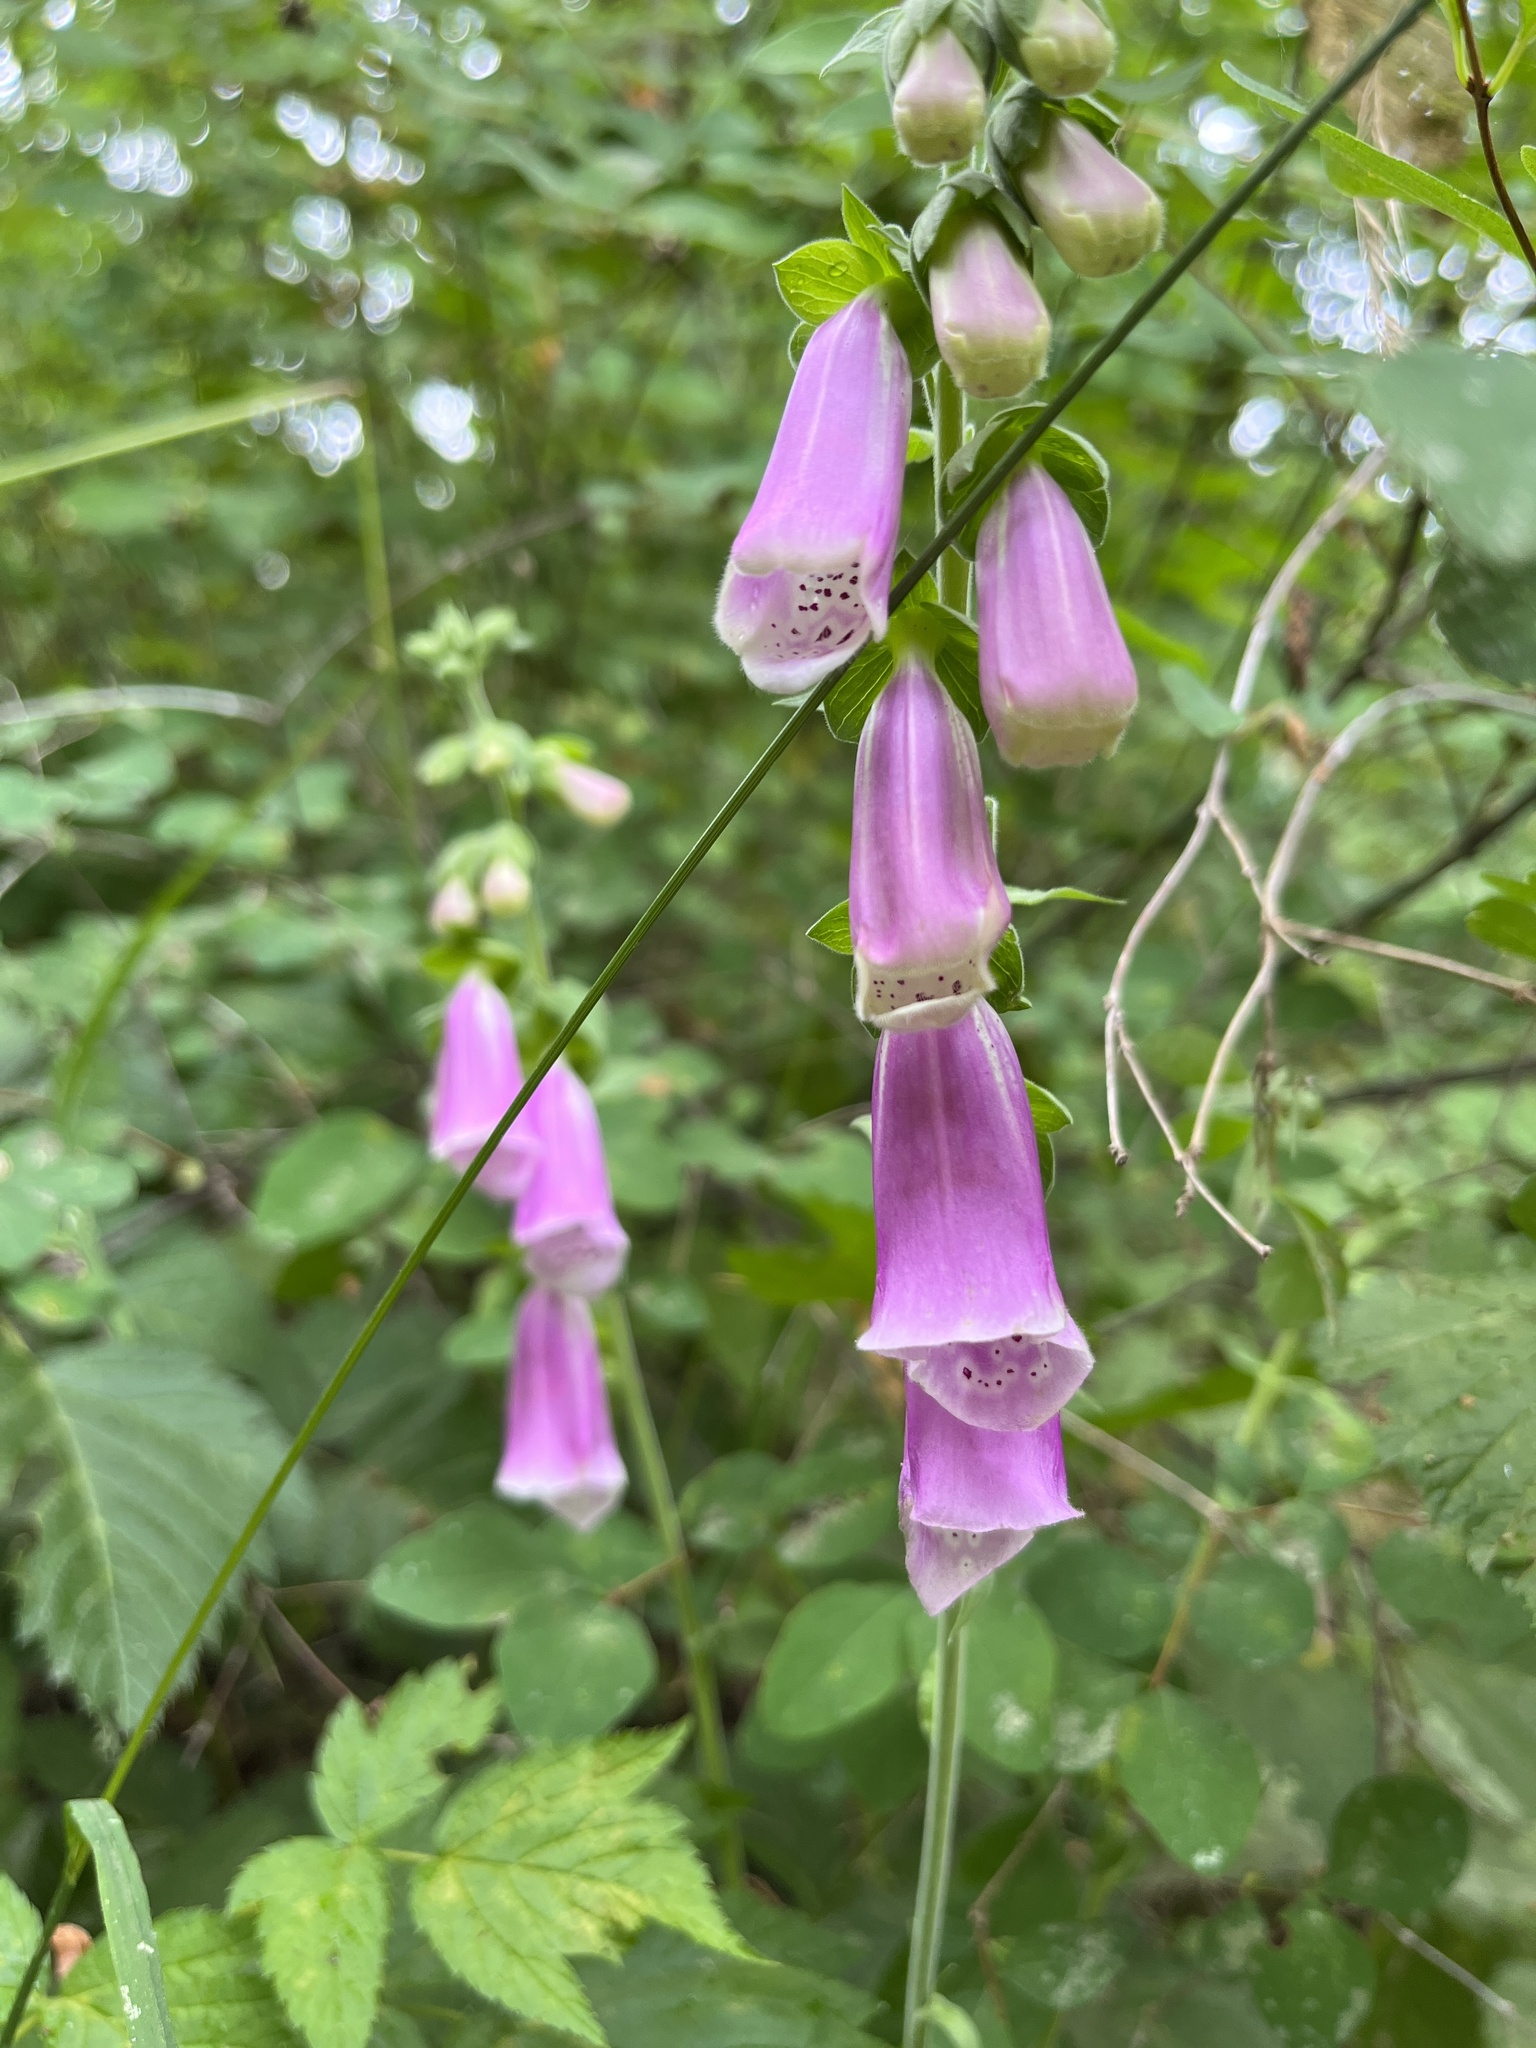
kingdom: Plantae
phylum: Tracheophyta
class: Magnoliopsida
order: Lamiales
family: Plantaginaceae
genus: Digitalis
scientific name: Digitalis purpurea
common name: Foxglove
